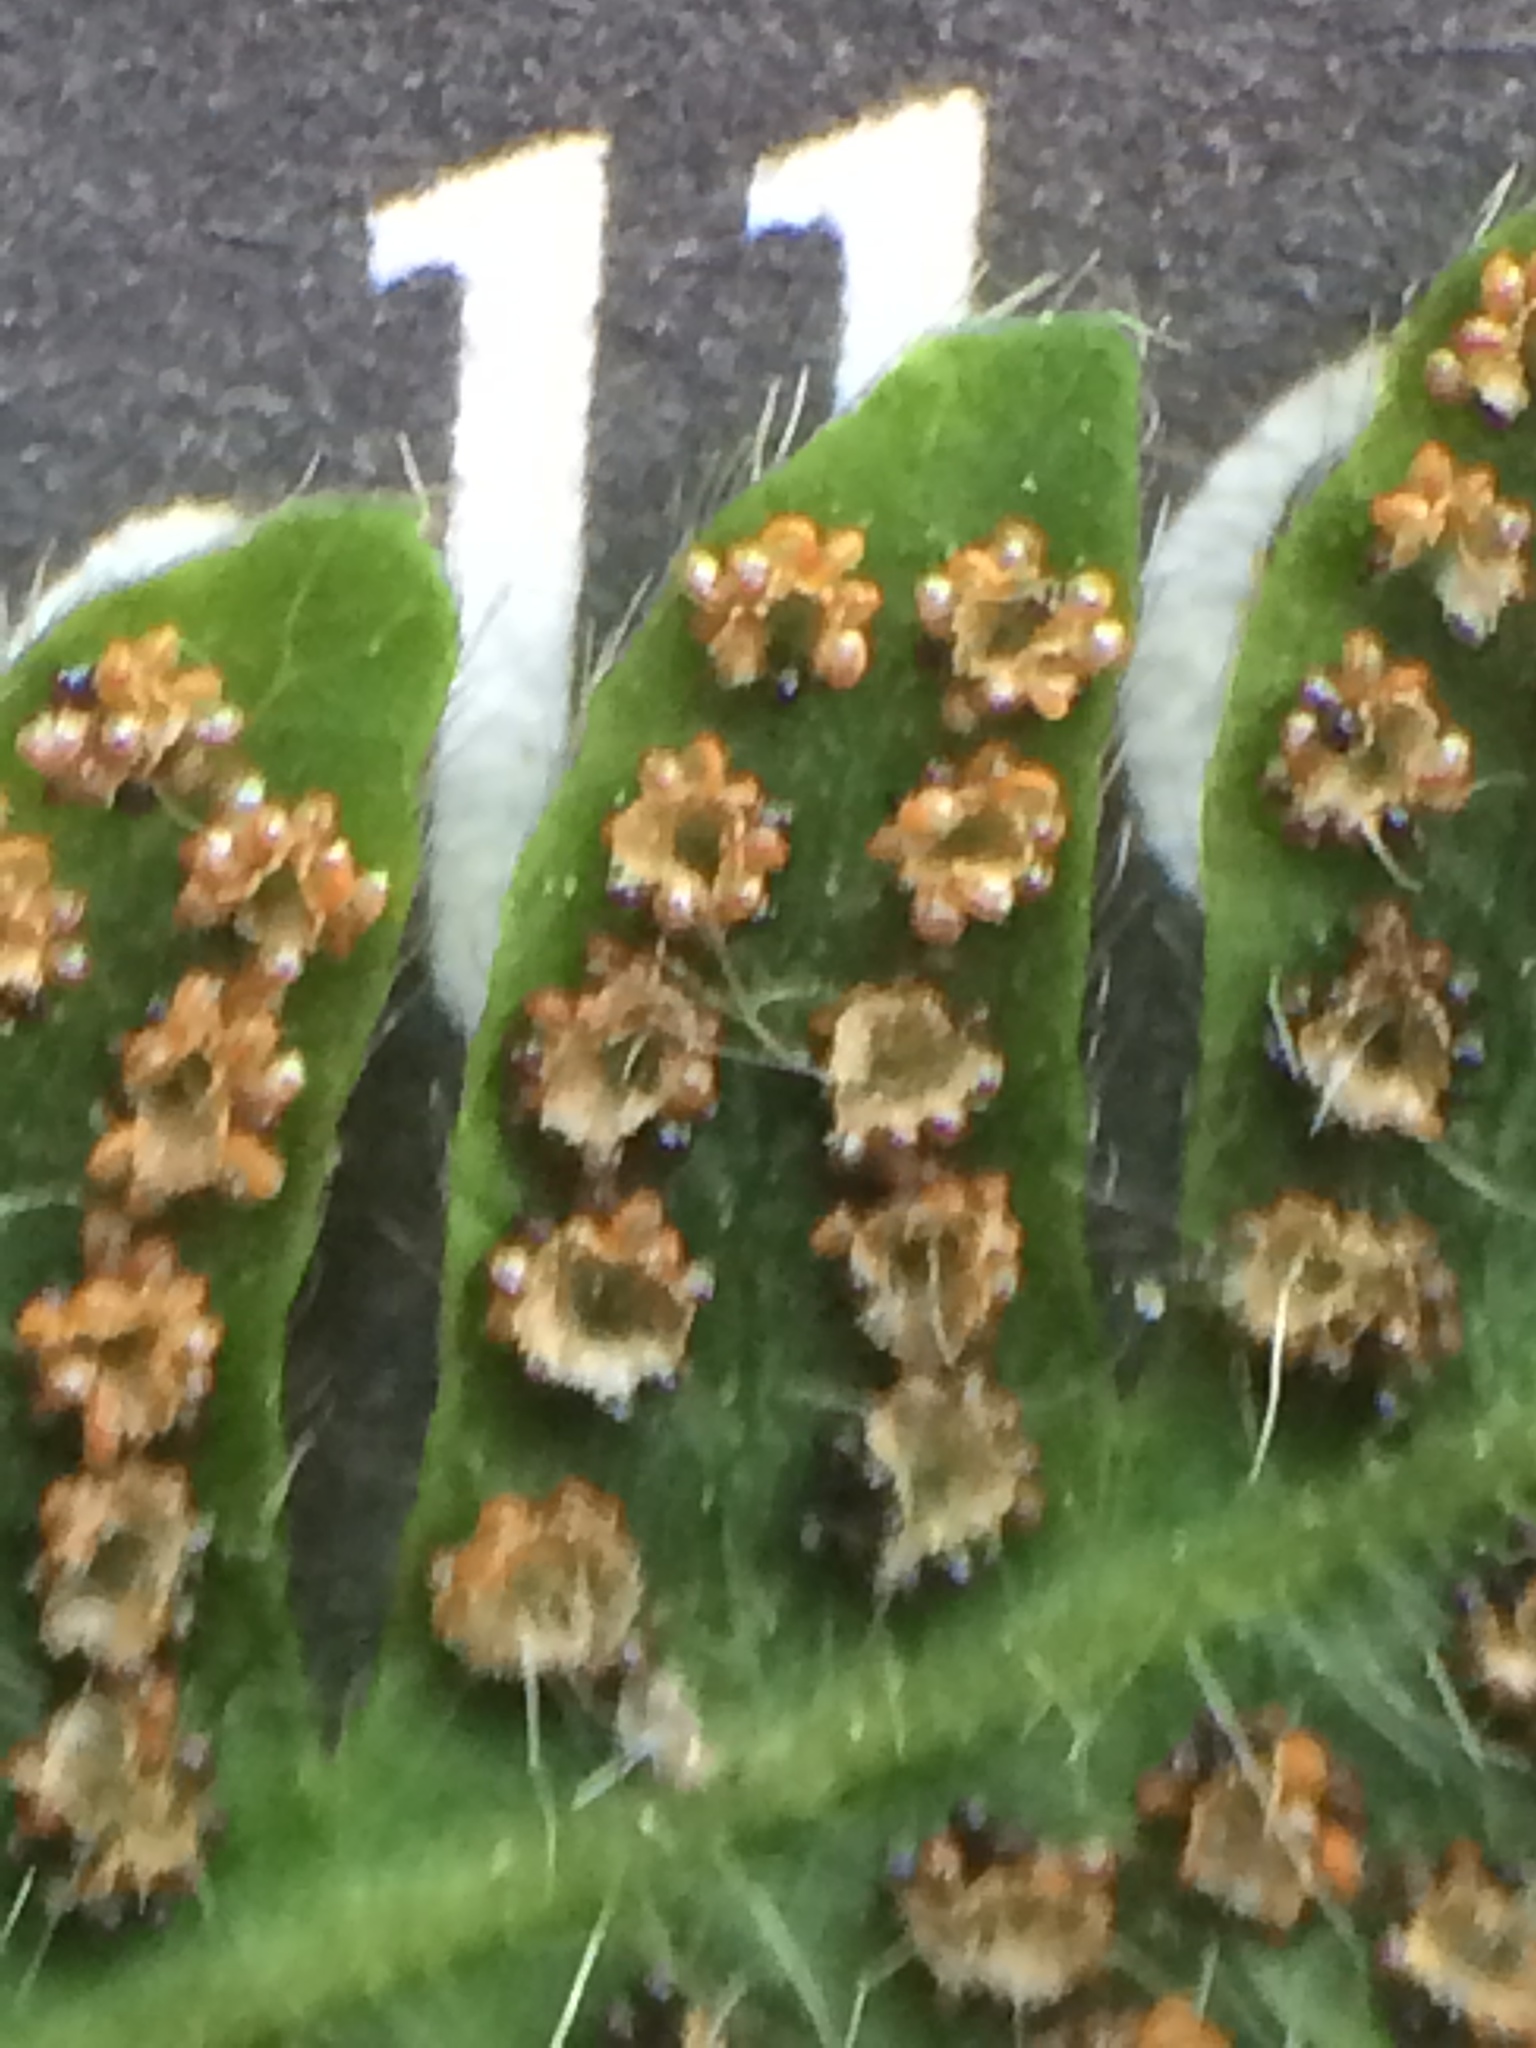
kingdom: Plantae
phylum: Tracheophyta
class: Polypodiopsida
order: Polypodiales
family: Thelypteridaceae
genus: Amauropelta
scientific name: Amauropelta noveboracensis
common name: New york fern
